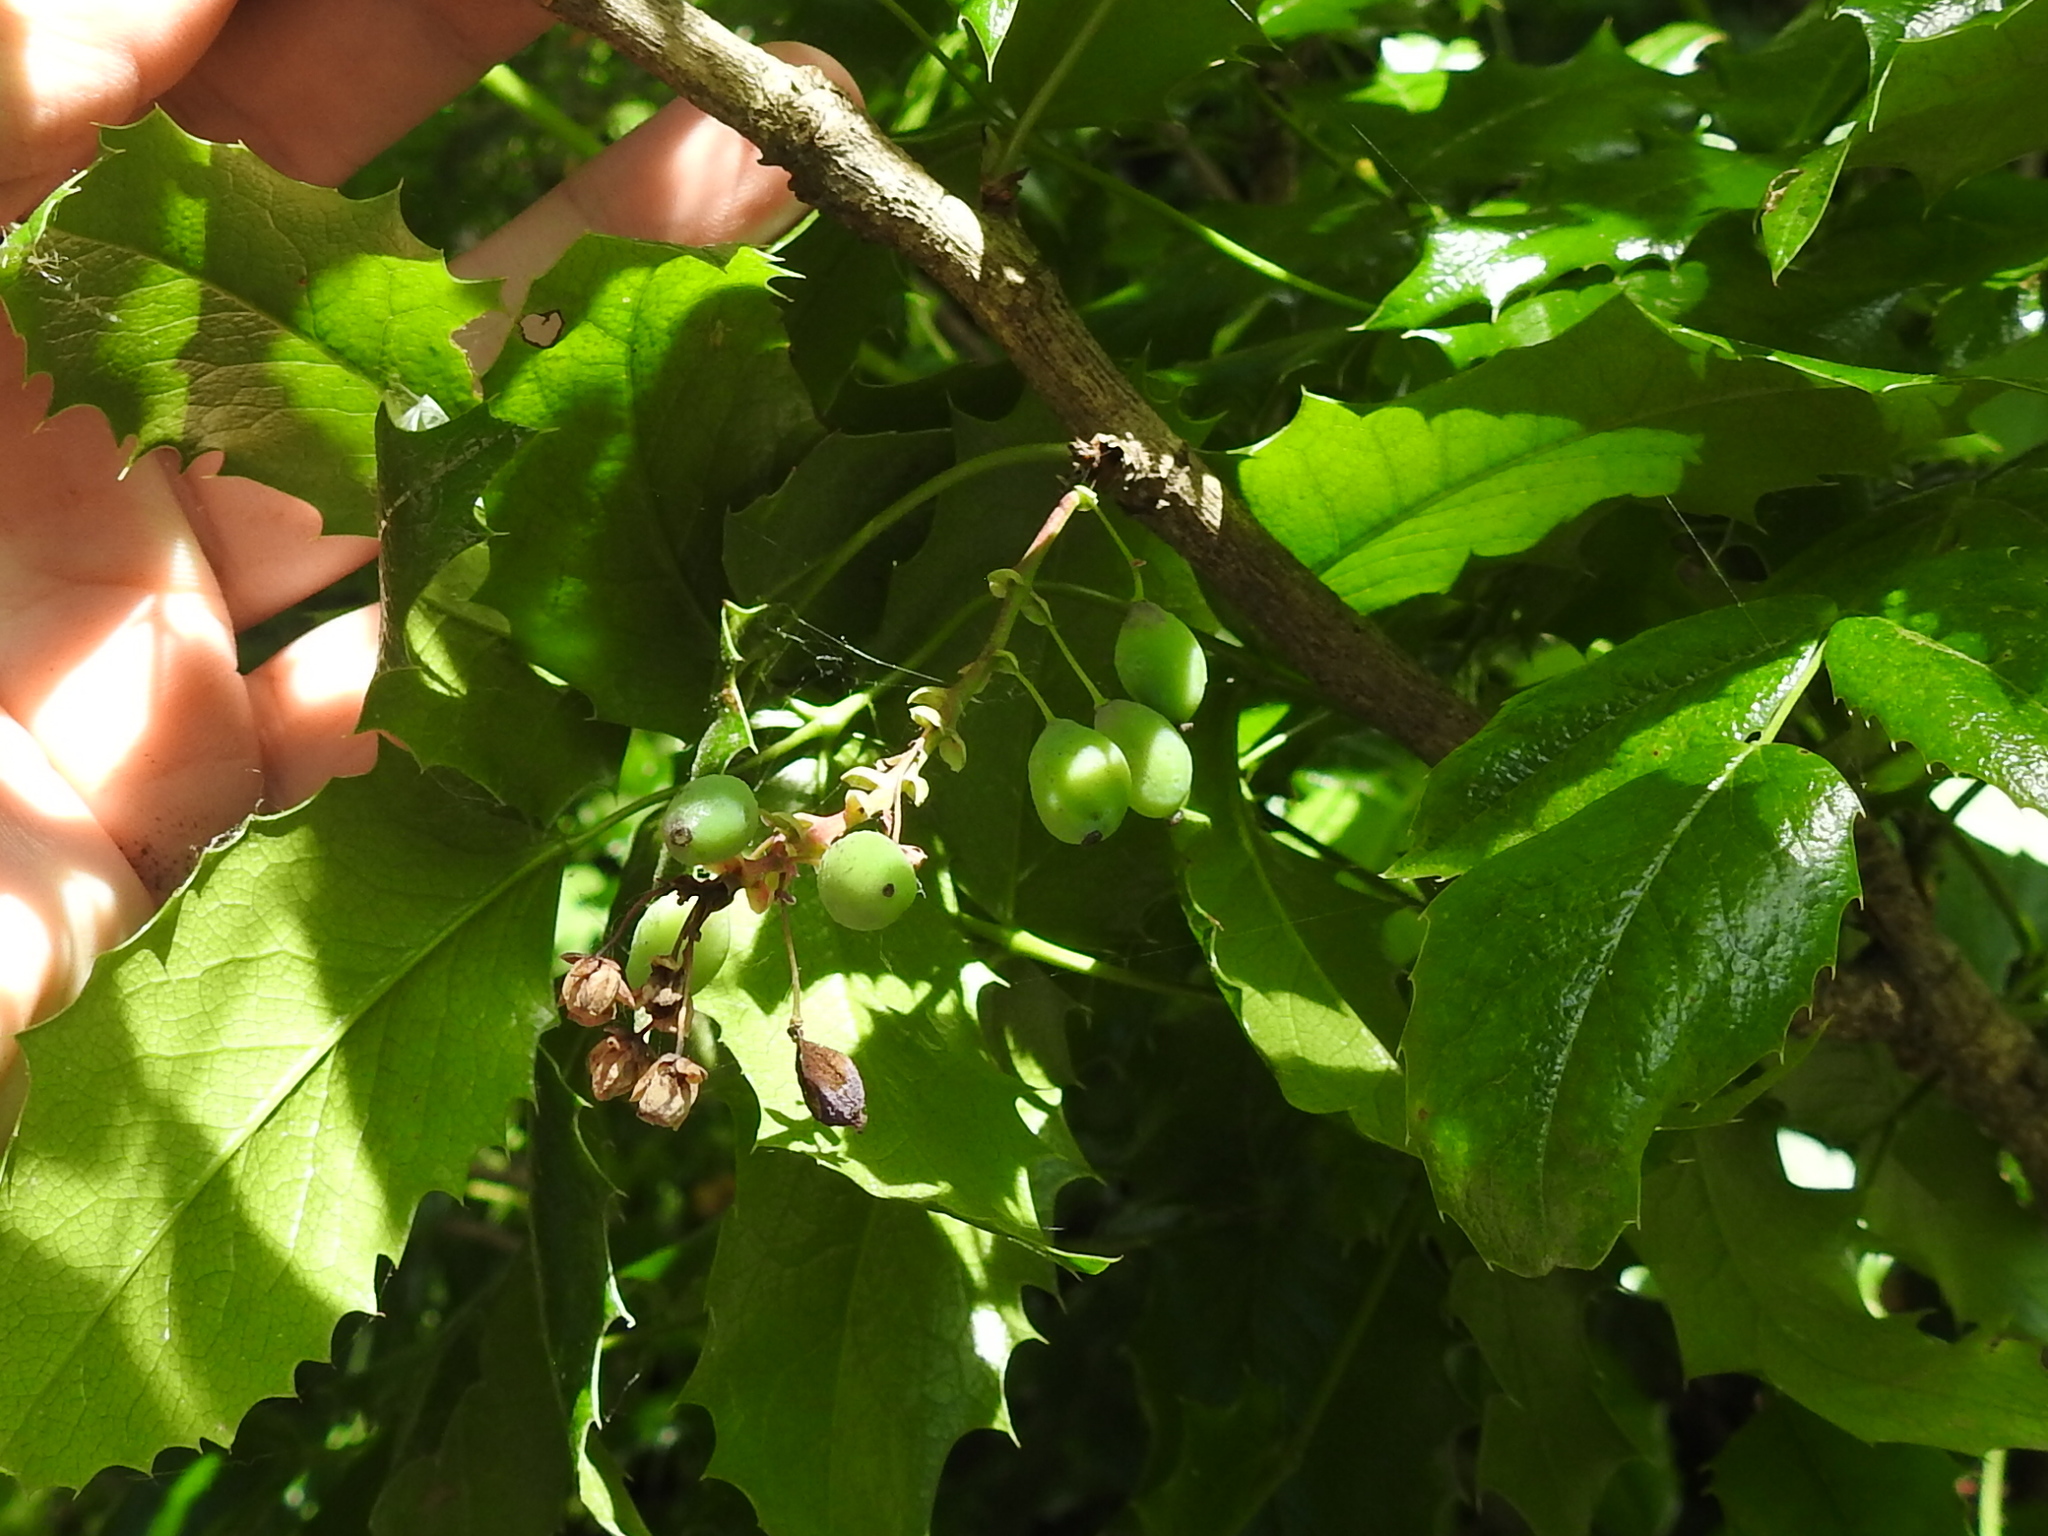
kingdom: Plantae
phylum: Tracheophyta
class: Magnoliopsida
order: Ranunculales
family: Berberidaceae
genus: Mahonia
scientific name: Mahonia aquifolium
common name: Oregon-grape
